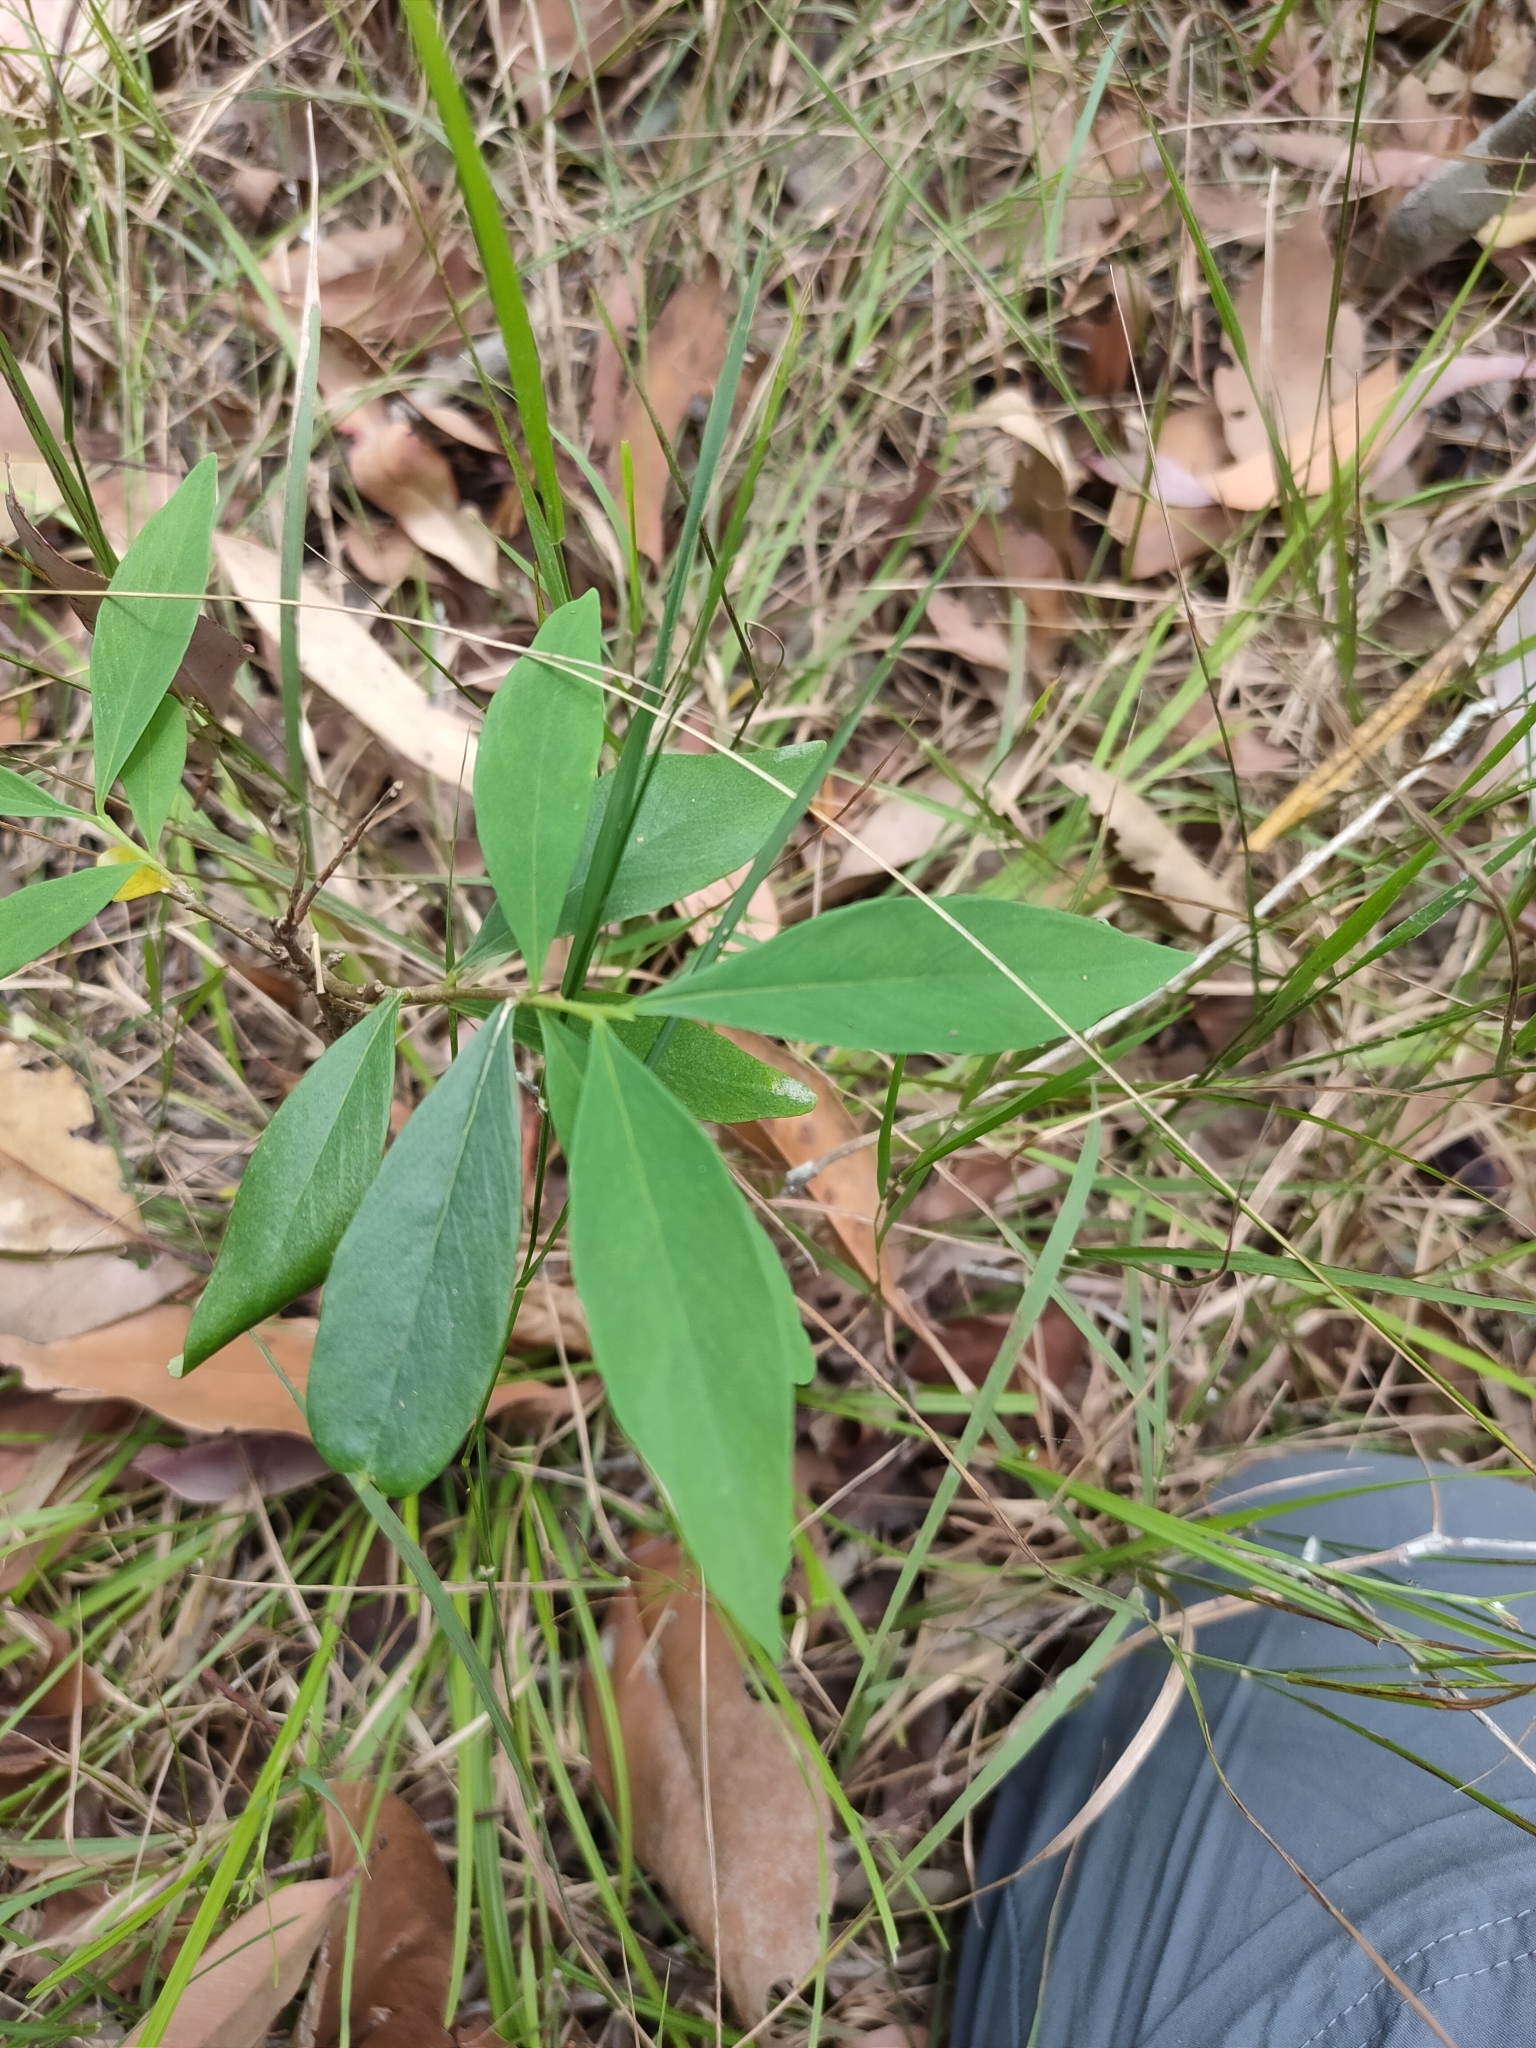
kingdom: Plantae
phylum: Tracheophyta
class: Magnoliopsida
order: Malvales
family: Thymelaeaceae
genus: Wikstroemia
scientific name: Wikstroemia indica
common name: Tiebush
